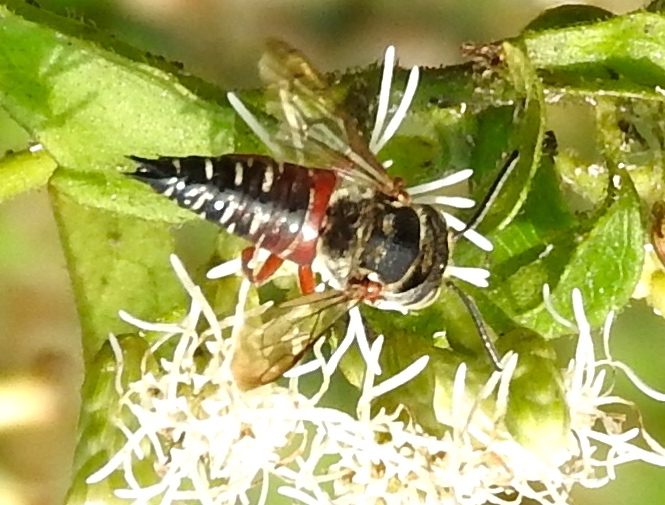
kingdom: Animalia
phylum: Arthropoda
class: Insecta
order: Hymenoptera
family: Megachilidae
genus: Coelioxys
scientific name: Coelioxys
